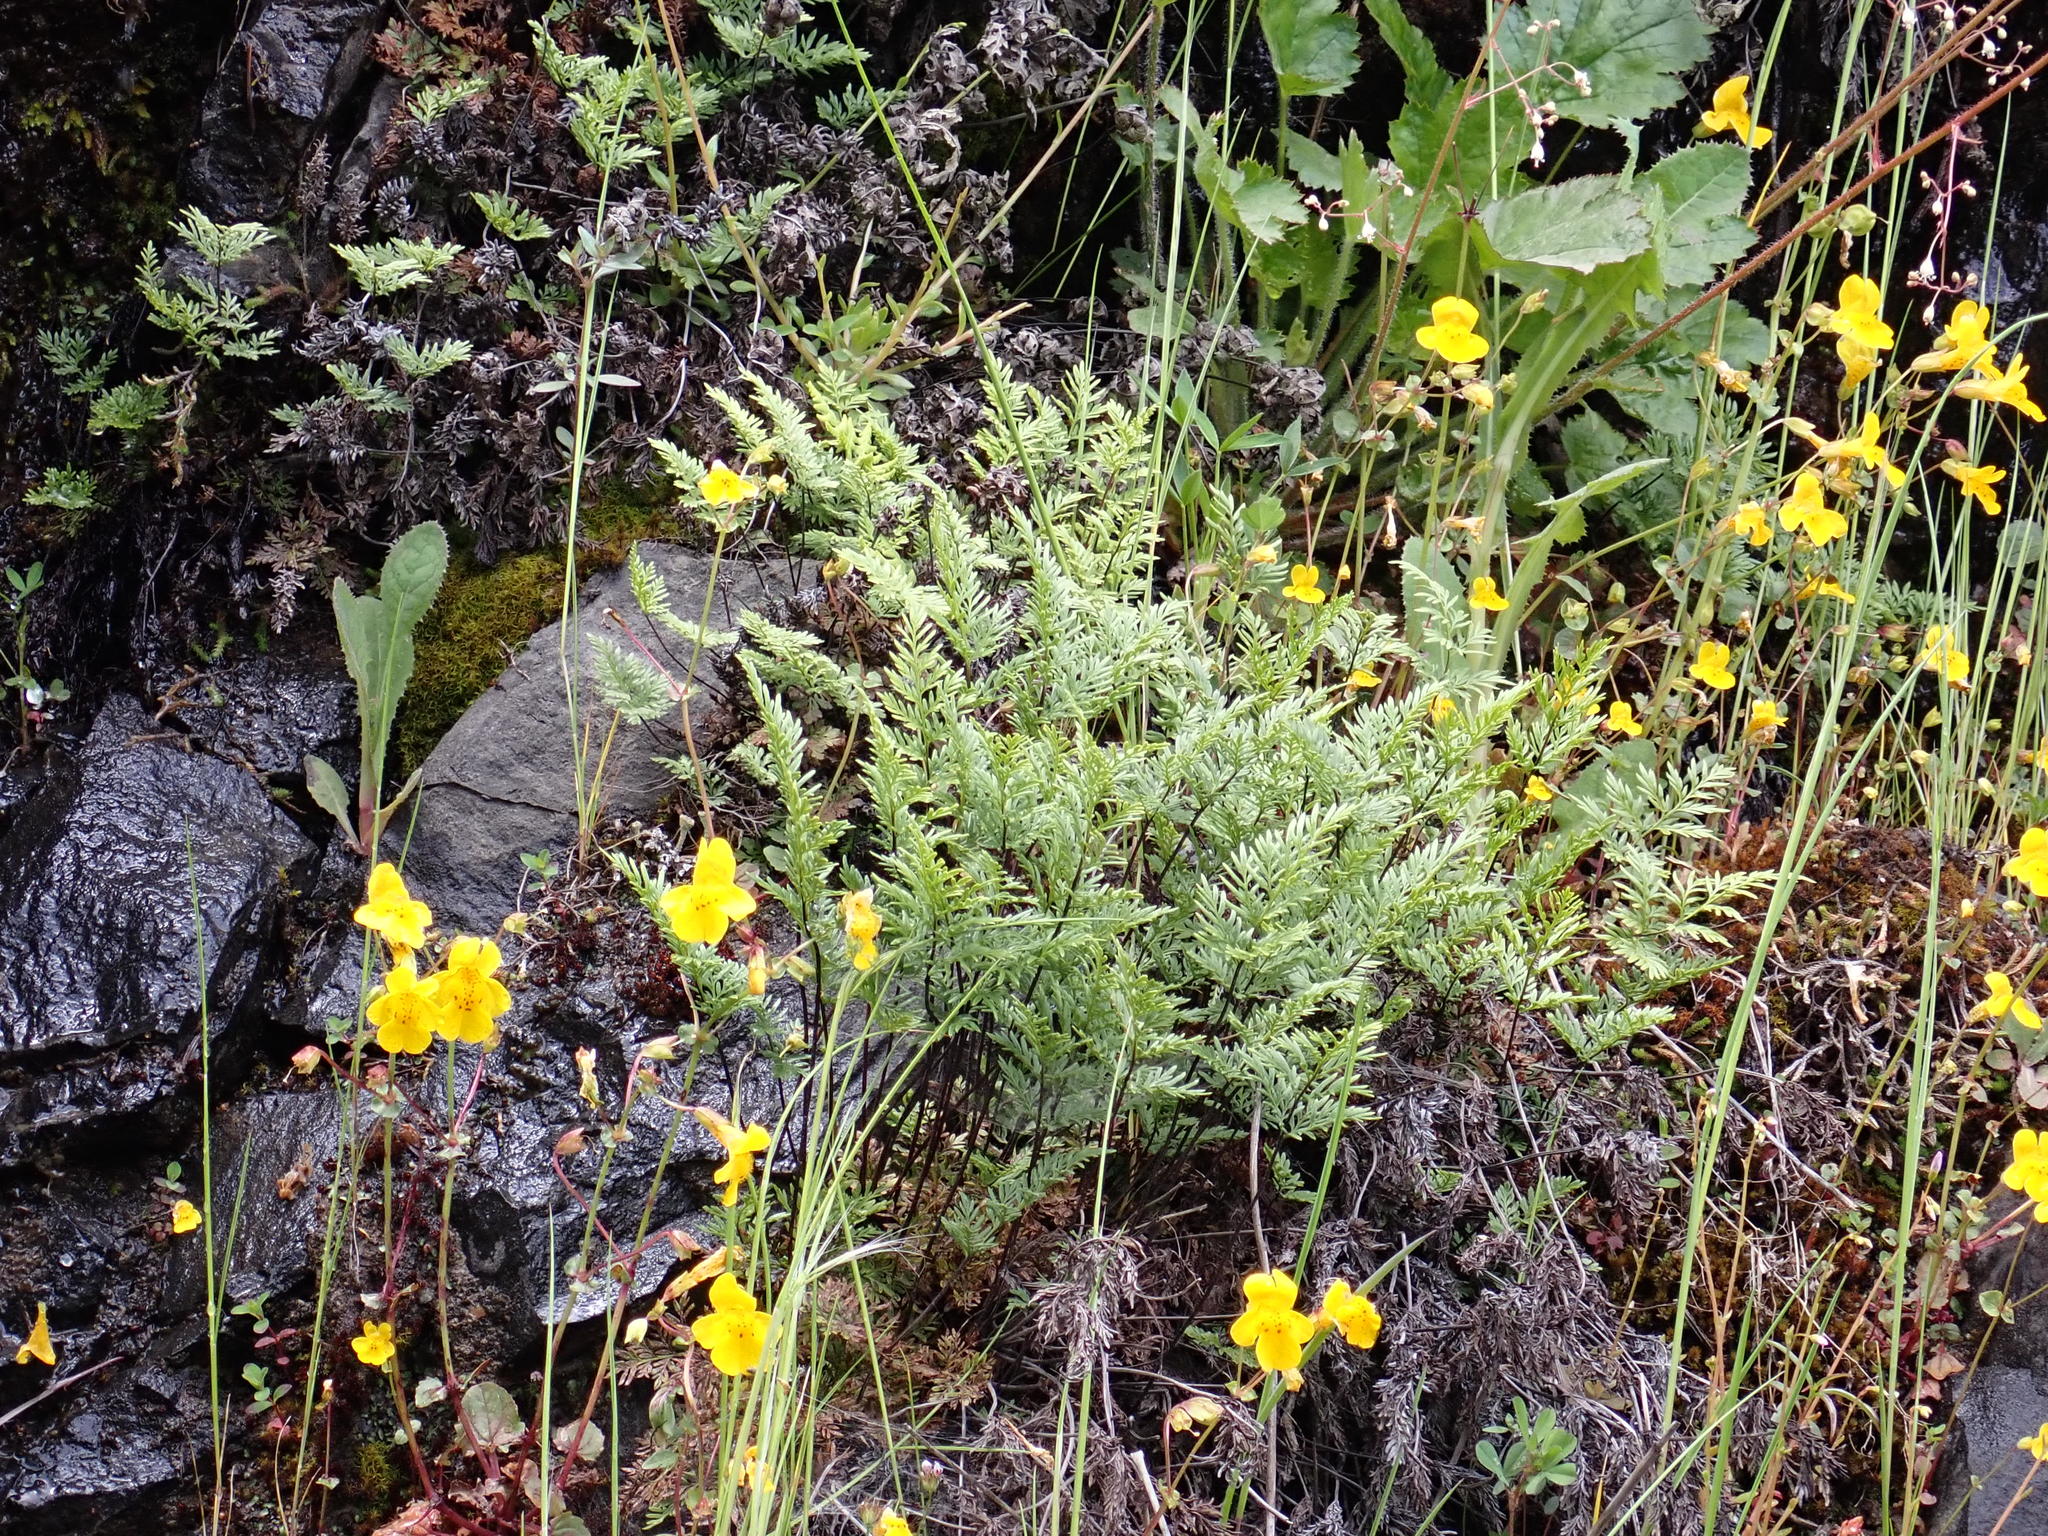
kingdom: Plantae
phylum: Tracheophyta
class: Polypodiopsida
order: Polypodiales
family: Pteridaceae
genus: Aspidotis
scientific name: Aspidotis densa
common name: Indian's dream
